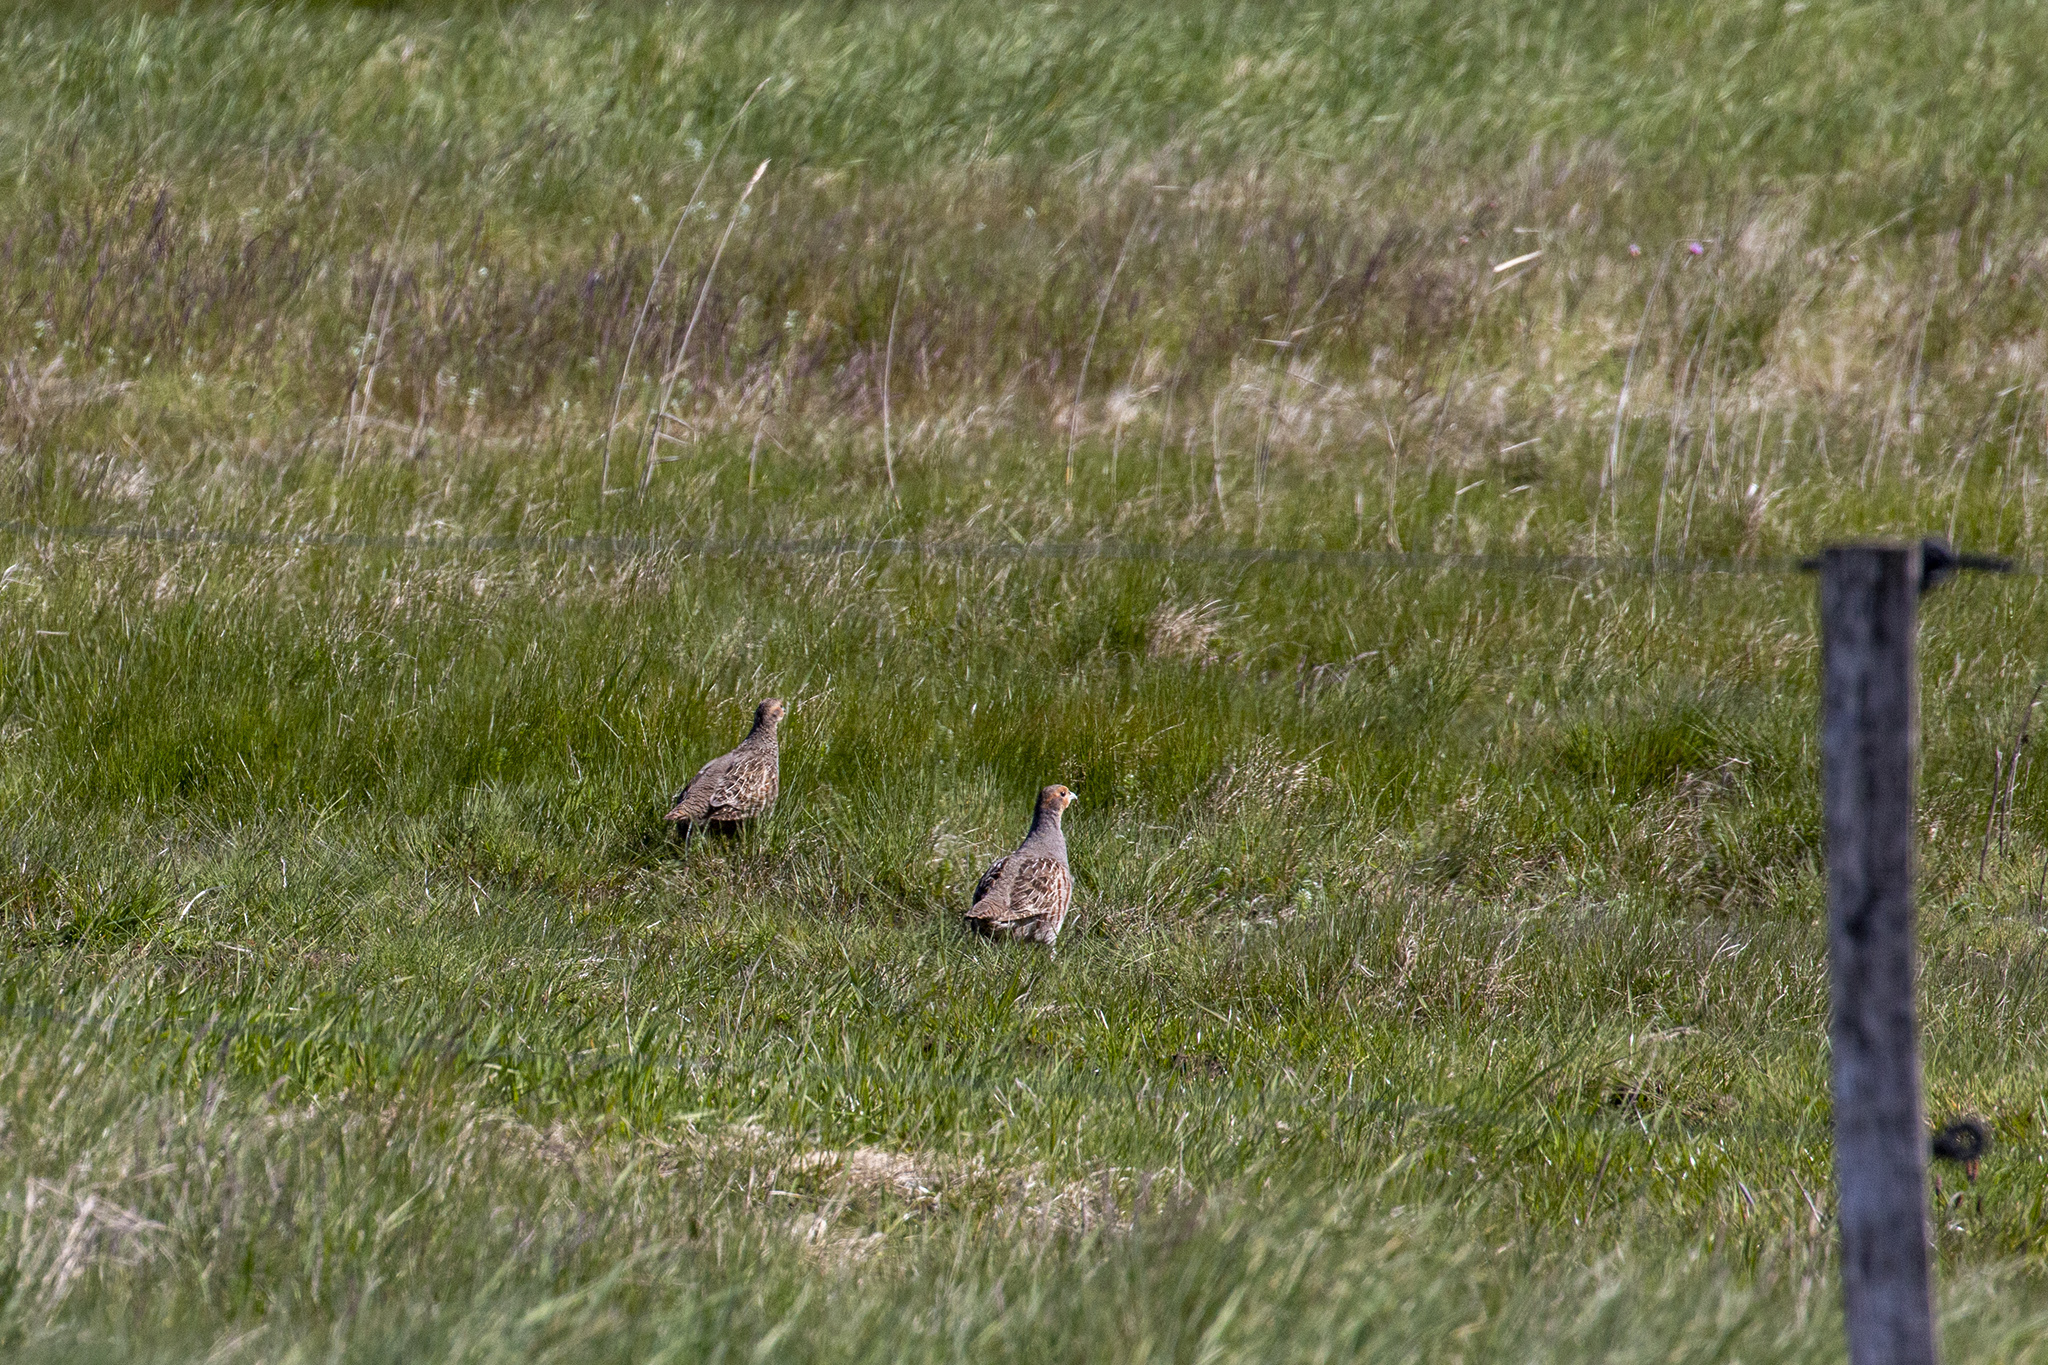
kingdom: Animalia
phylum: Chordata
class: Aves
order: Galliformes
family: Phasianidae
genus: Perdix
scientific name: Perdix perdix
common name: Grey partridge
